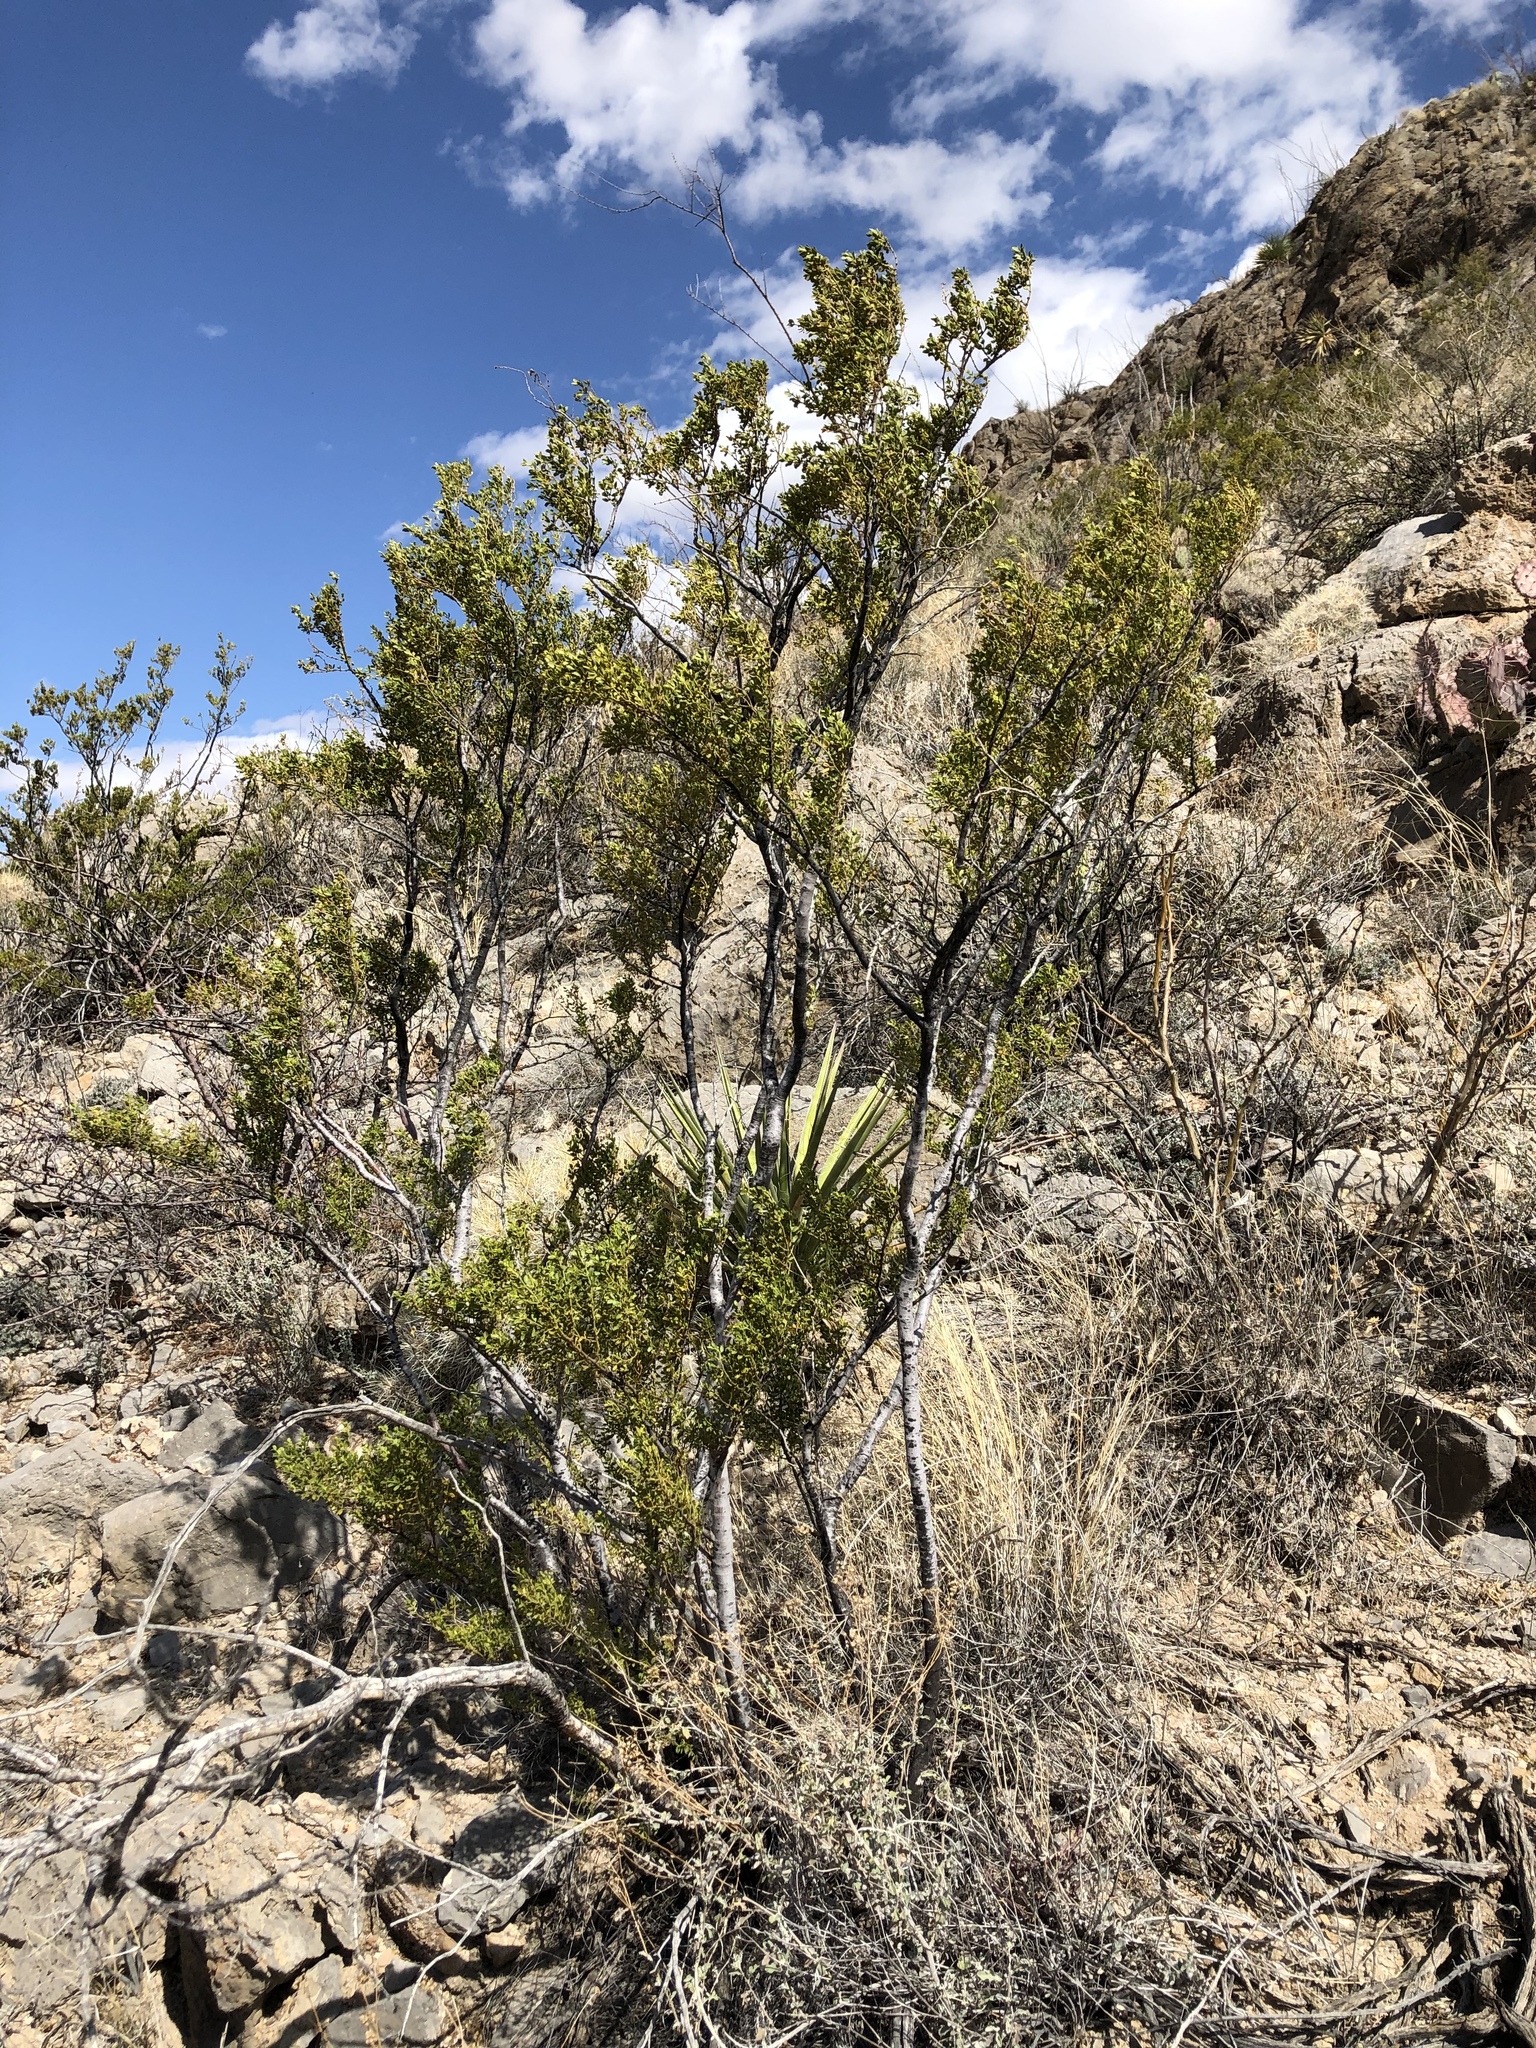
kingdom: Plantae
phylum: Tracheophyta
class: Magnoliopsida
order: Zygophyllales
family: Zygophyllaceae
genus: Larrea
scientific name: Larrea tridentata
